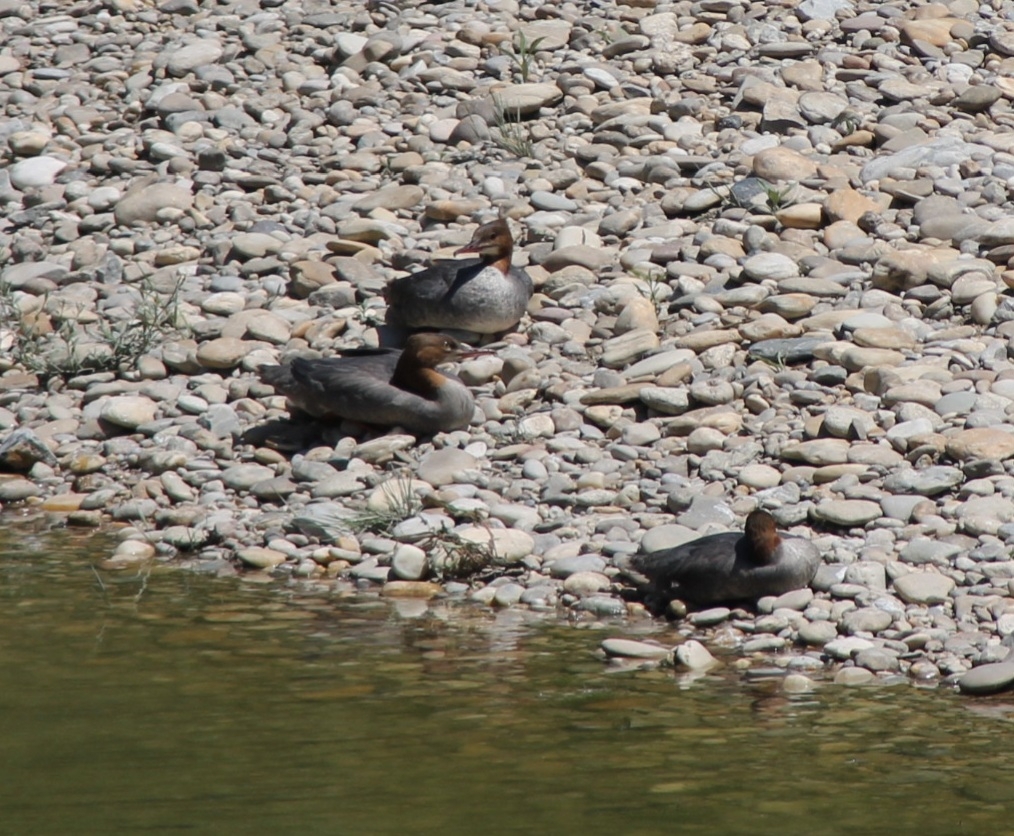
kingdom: Animalia
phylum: Chordata
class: Aves
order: Anseriformes
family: Anatidae
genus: Mergus
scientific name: Mergus merganser
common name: Common merganser
